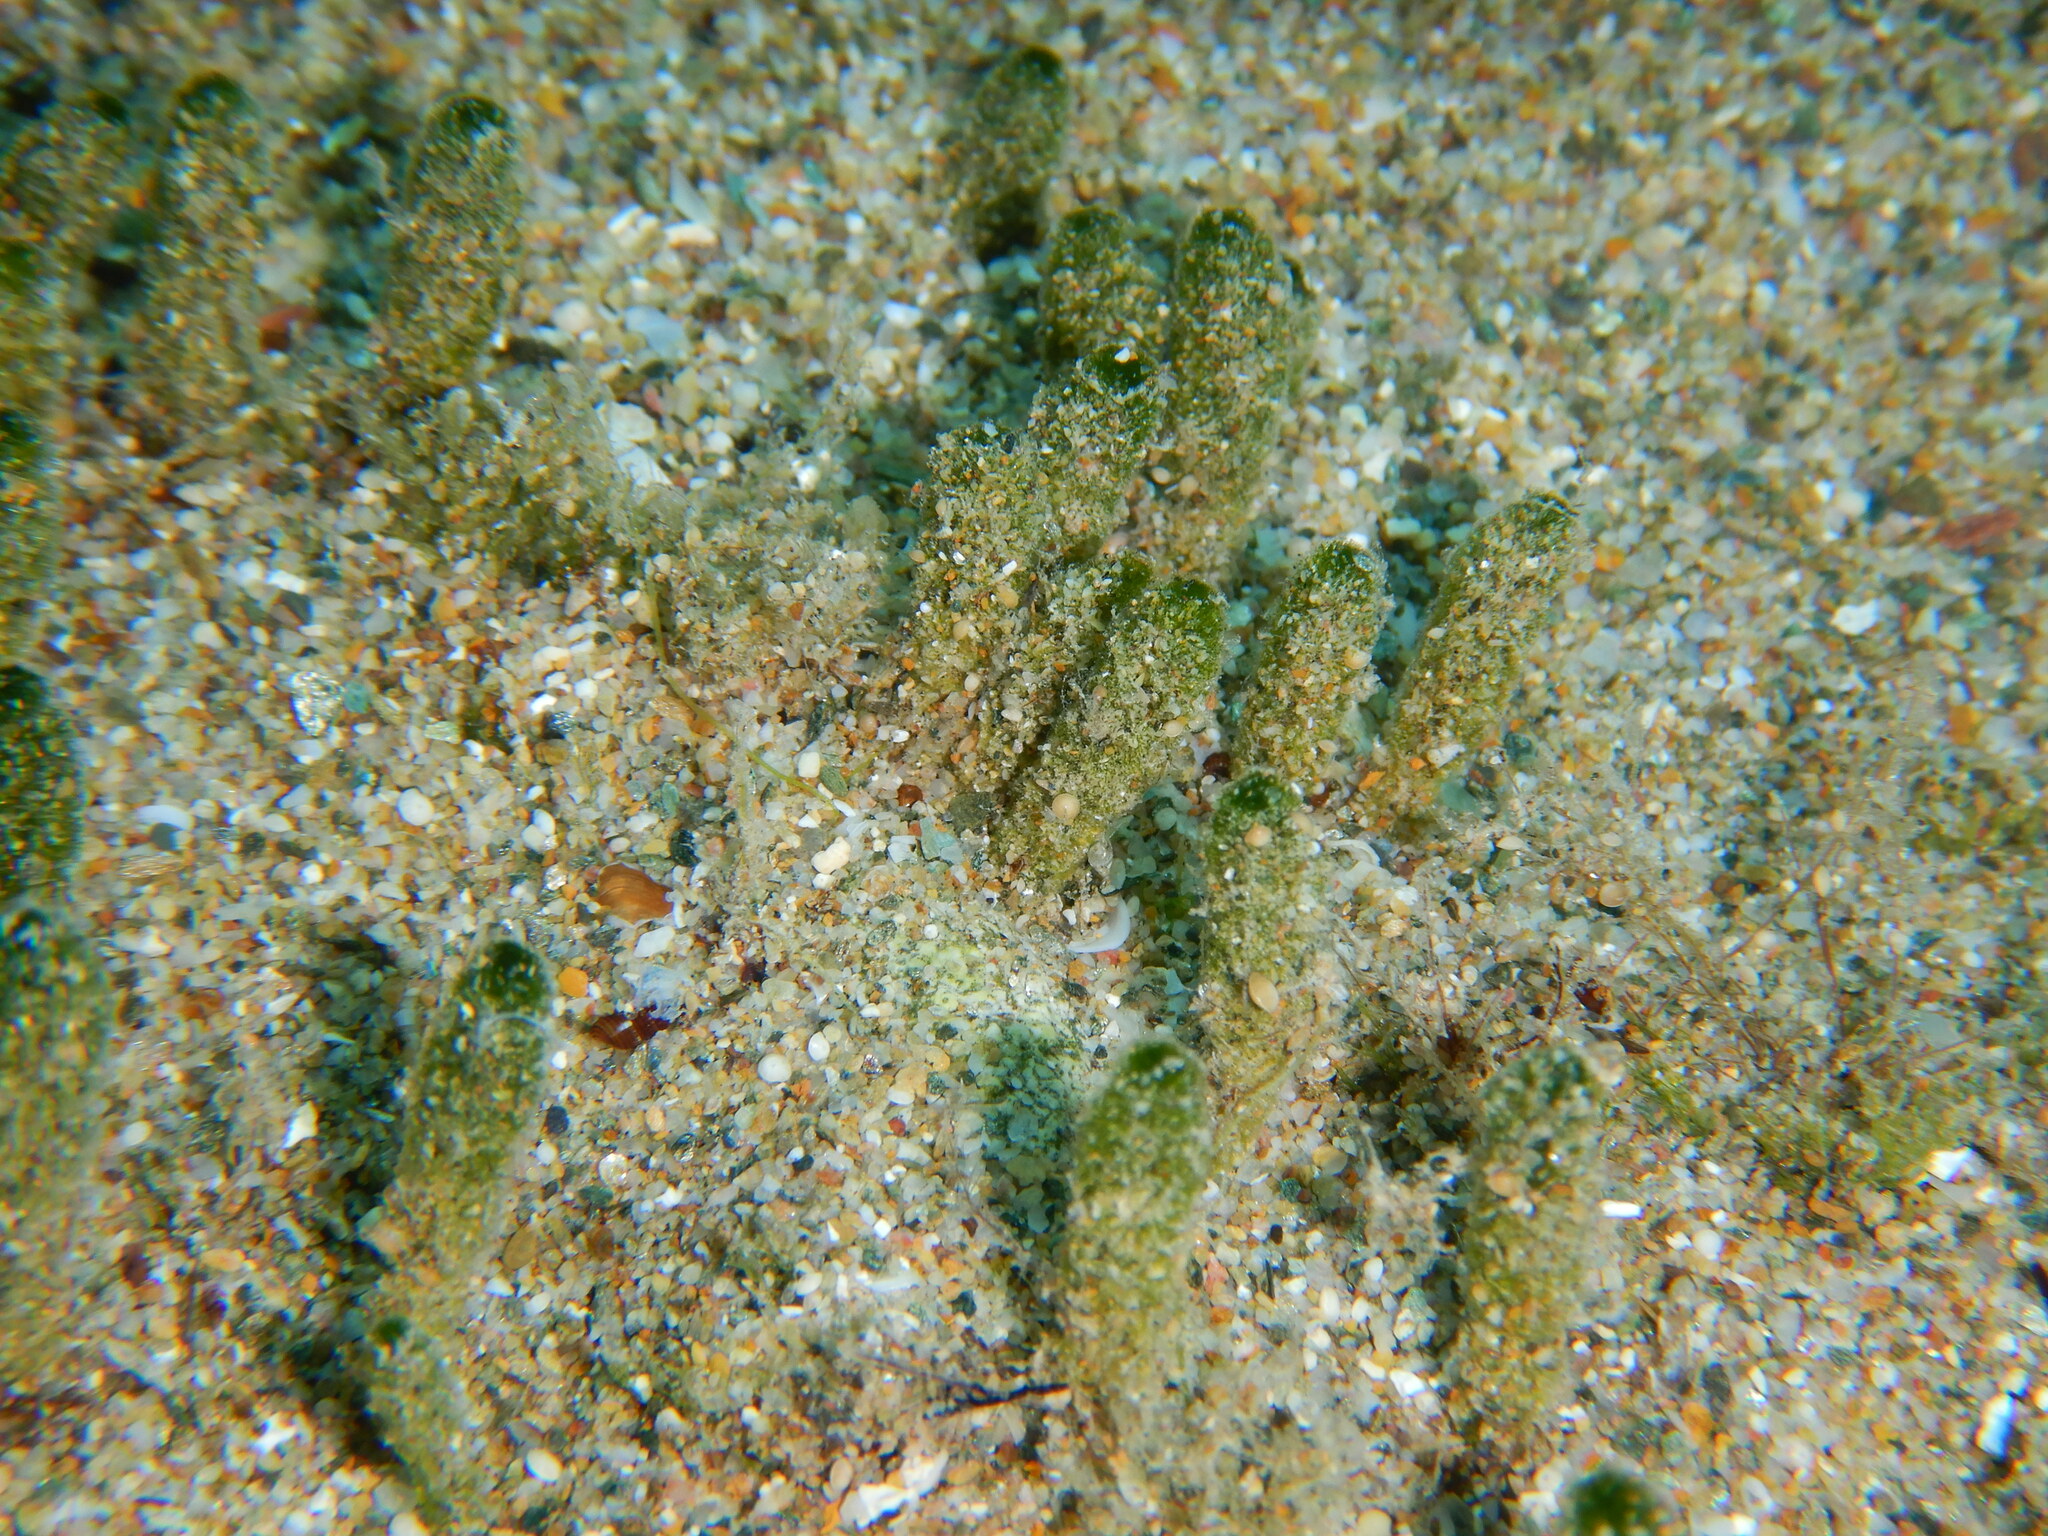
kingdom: Plantae
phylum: Chlorophyta
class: Ulvophyceae
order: Dasycladales
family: Dasycladaceae
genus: Dasycladus
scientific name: Dasycladus vermicularis
